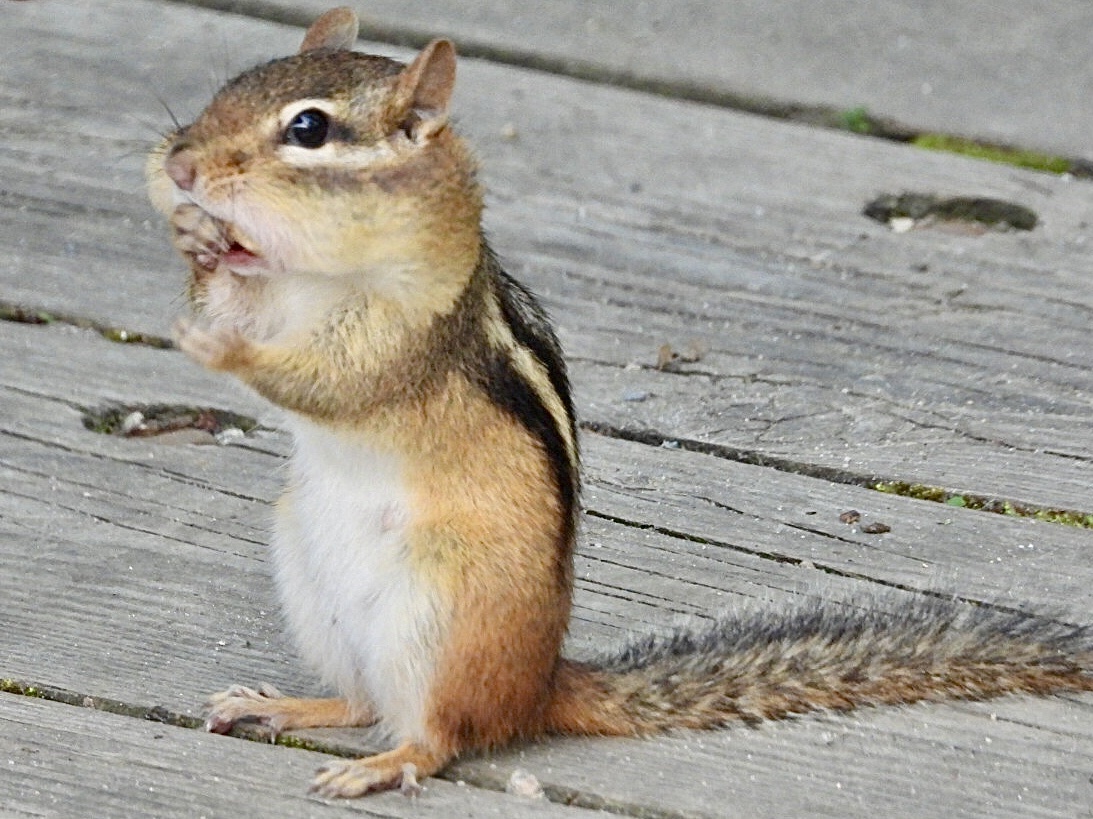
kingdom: Animalia
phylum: Chordata
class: Mammalia
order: Rodentia
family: Sciuridae
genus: Tamias
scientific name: Tamias striatus
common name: Eastern chipmunk
